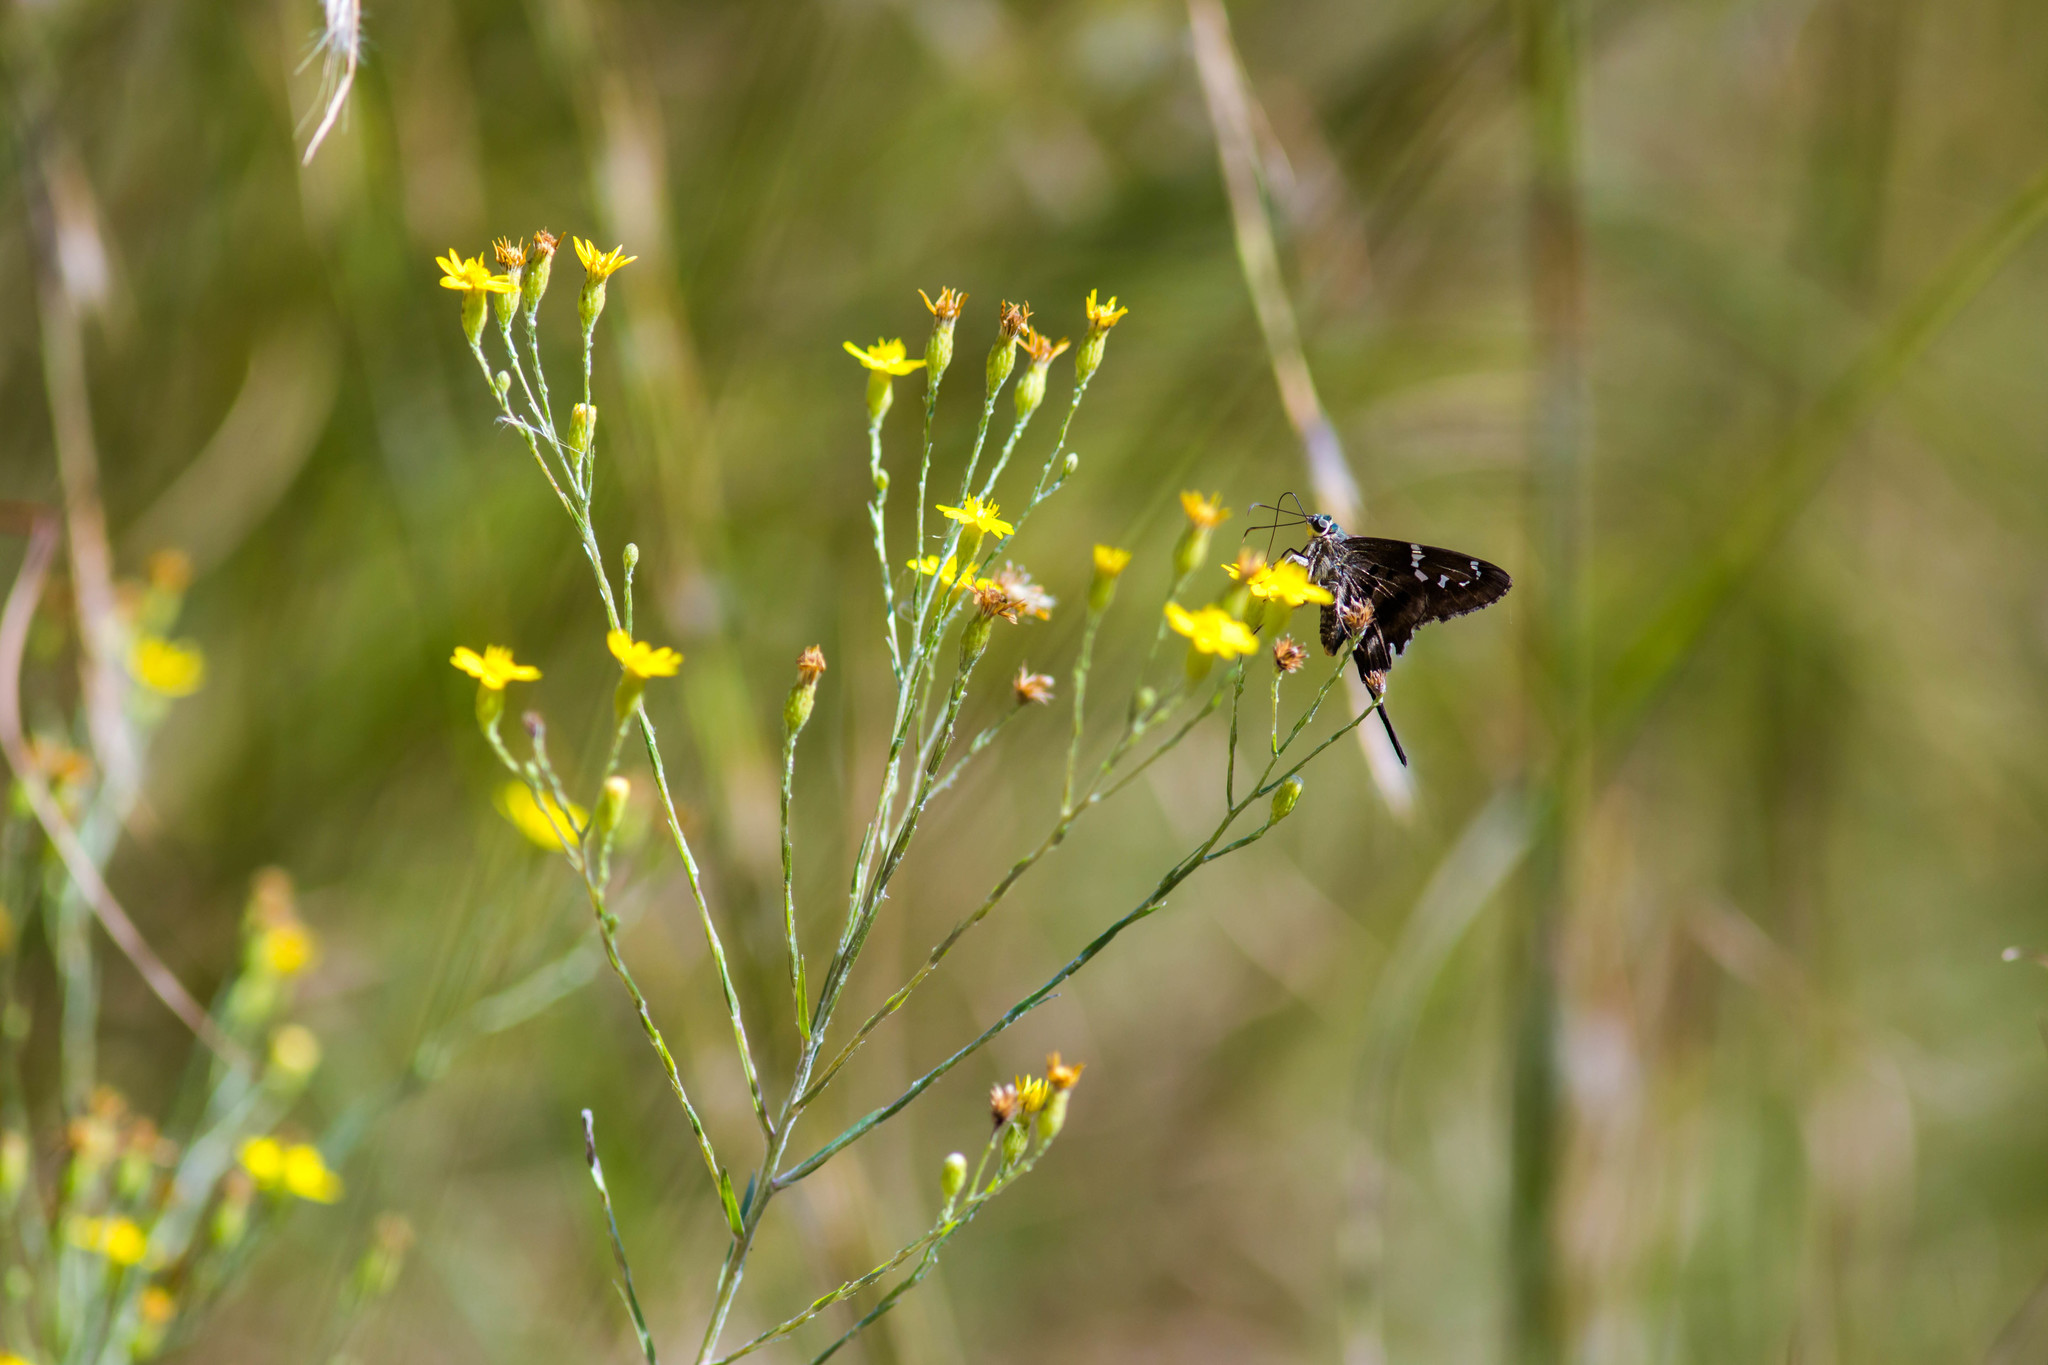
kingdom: Animalia
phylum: Arthropoda
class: Insecta
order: Lepidoptera
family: Hesperiidae
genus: Urbanus
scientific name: Urbanus proteus
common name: Long-tailed skipper
